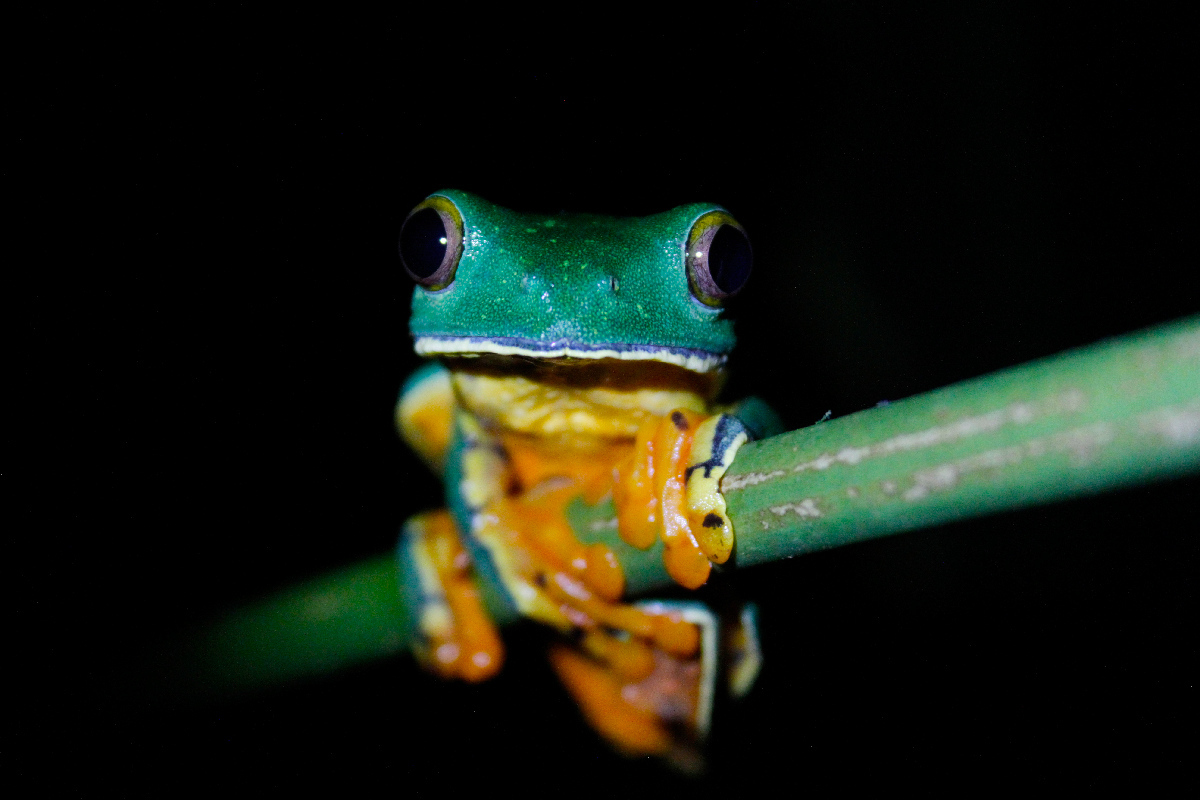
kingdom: Animalia
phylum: Chordata
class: Amphibia
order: Anura
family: Phyllomedusidae
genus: Cruziohyla
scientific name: Cruziohyla sylviae
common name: Sylvia's tree frog
